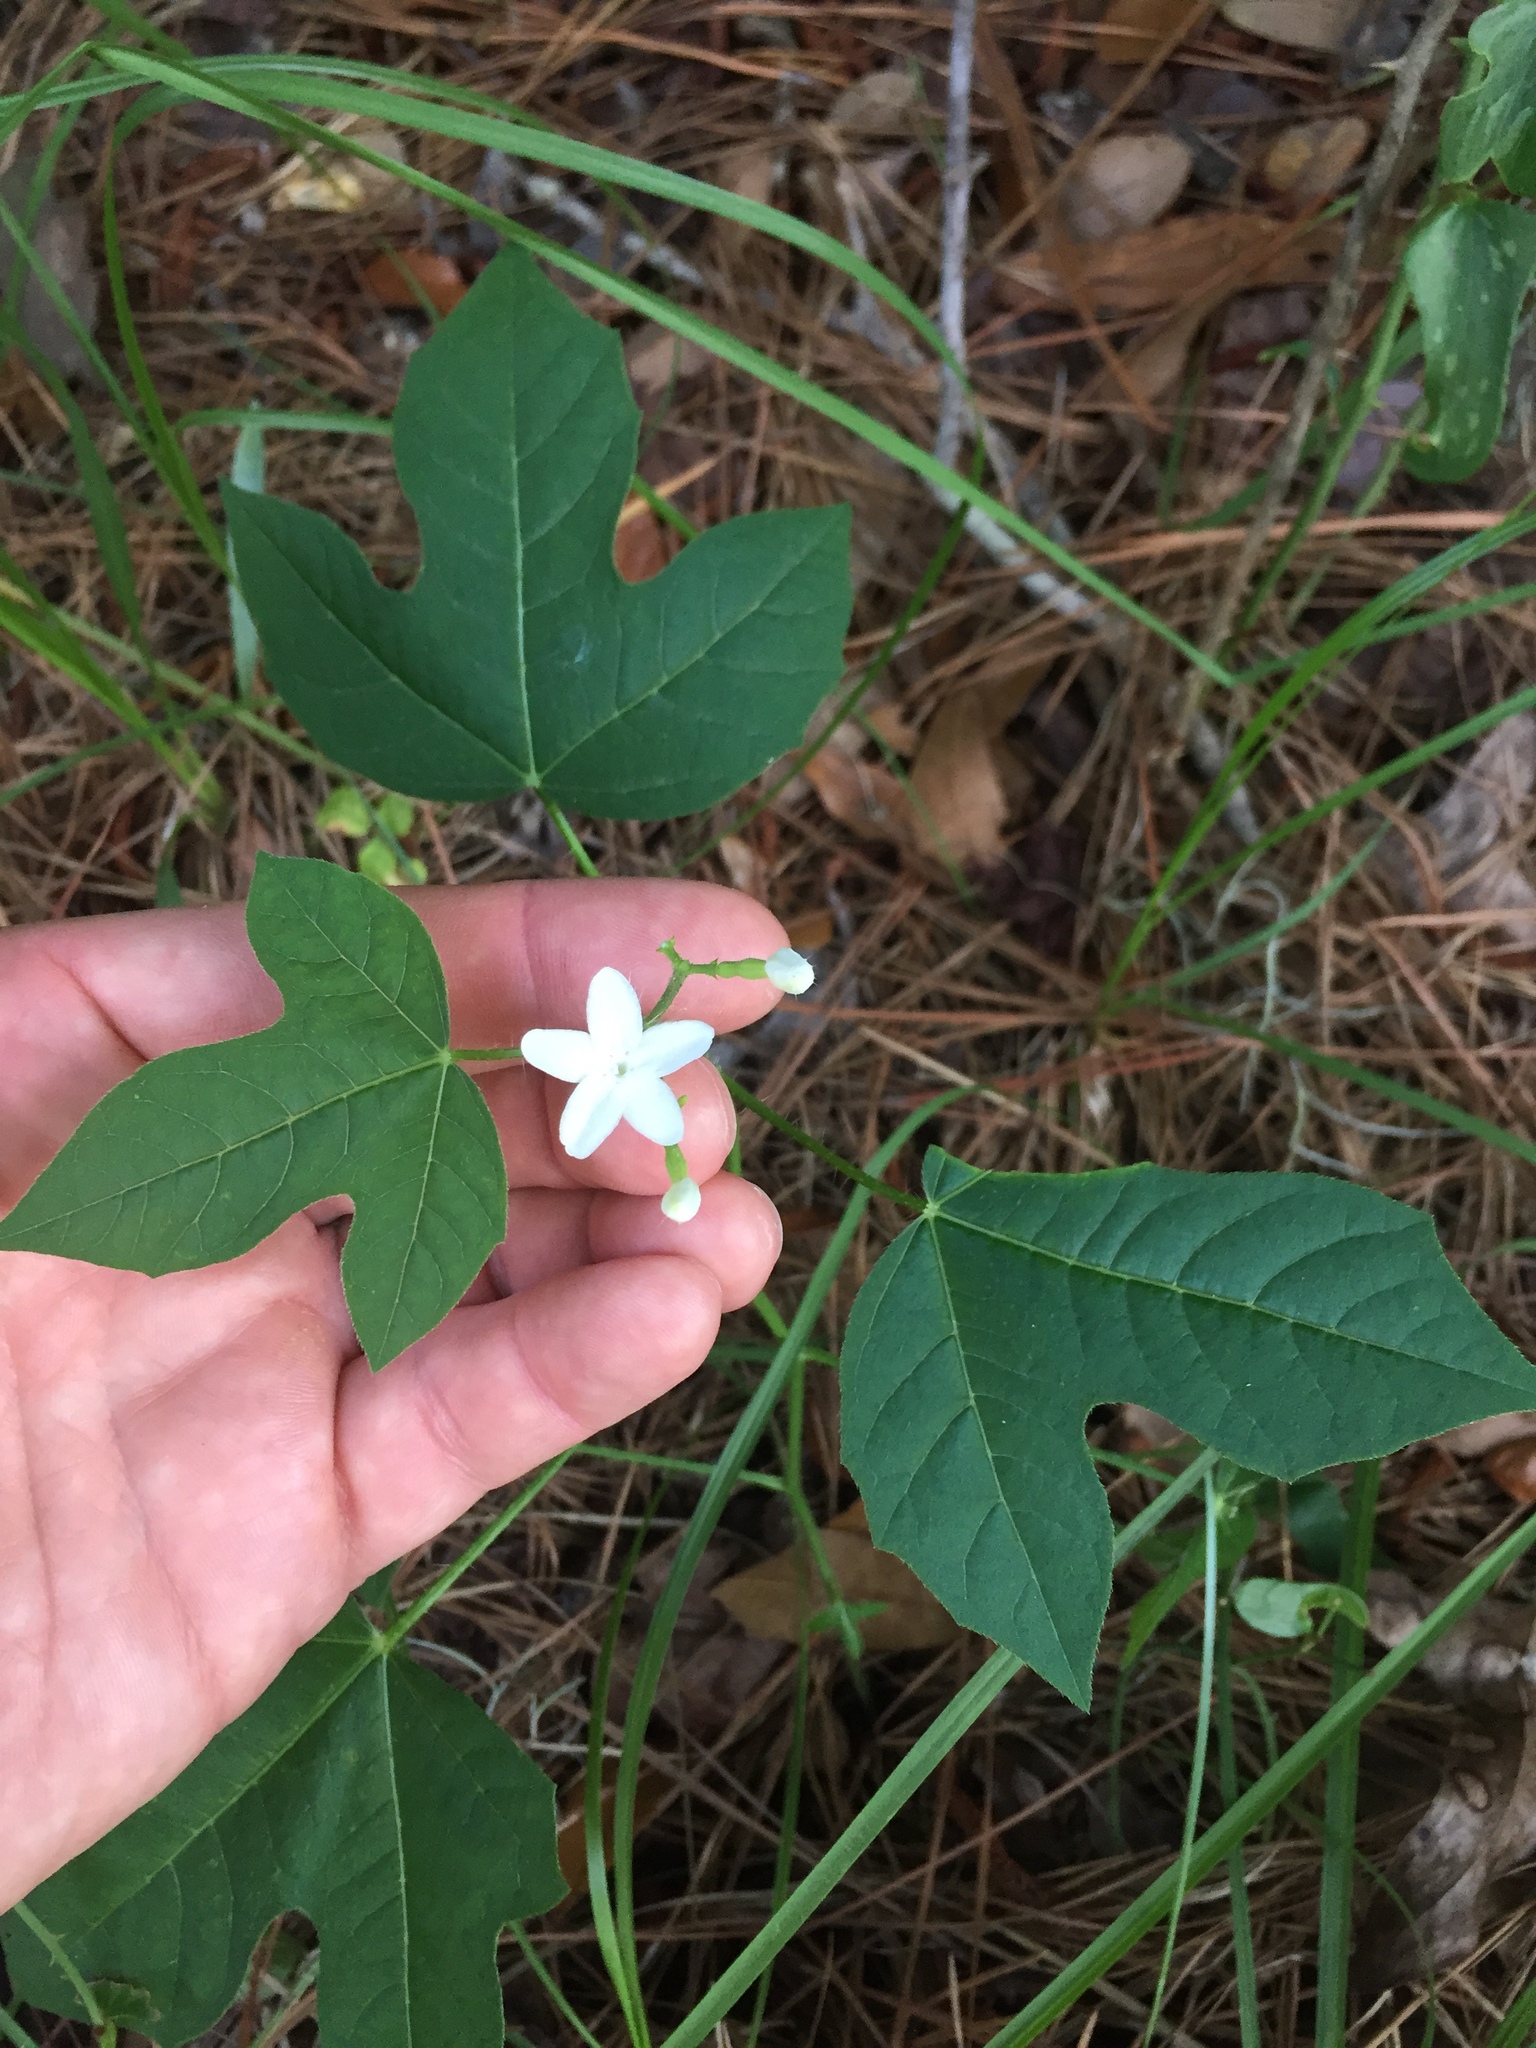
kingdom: Plantae
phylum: Tracheophyta
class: Magnoliopsida
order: Malpighiales
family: Euphorbiaceae
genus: Cnidoscolus
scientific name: Cnidoscolus stimulosus
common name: Bull-nettle
